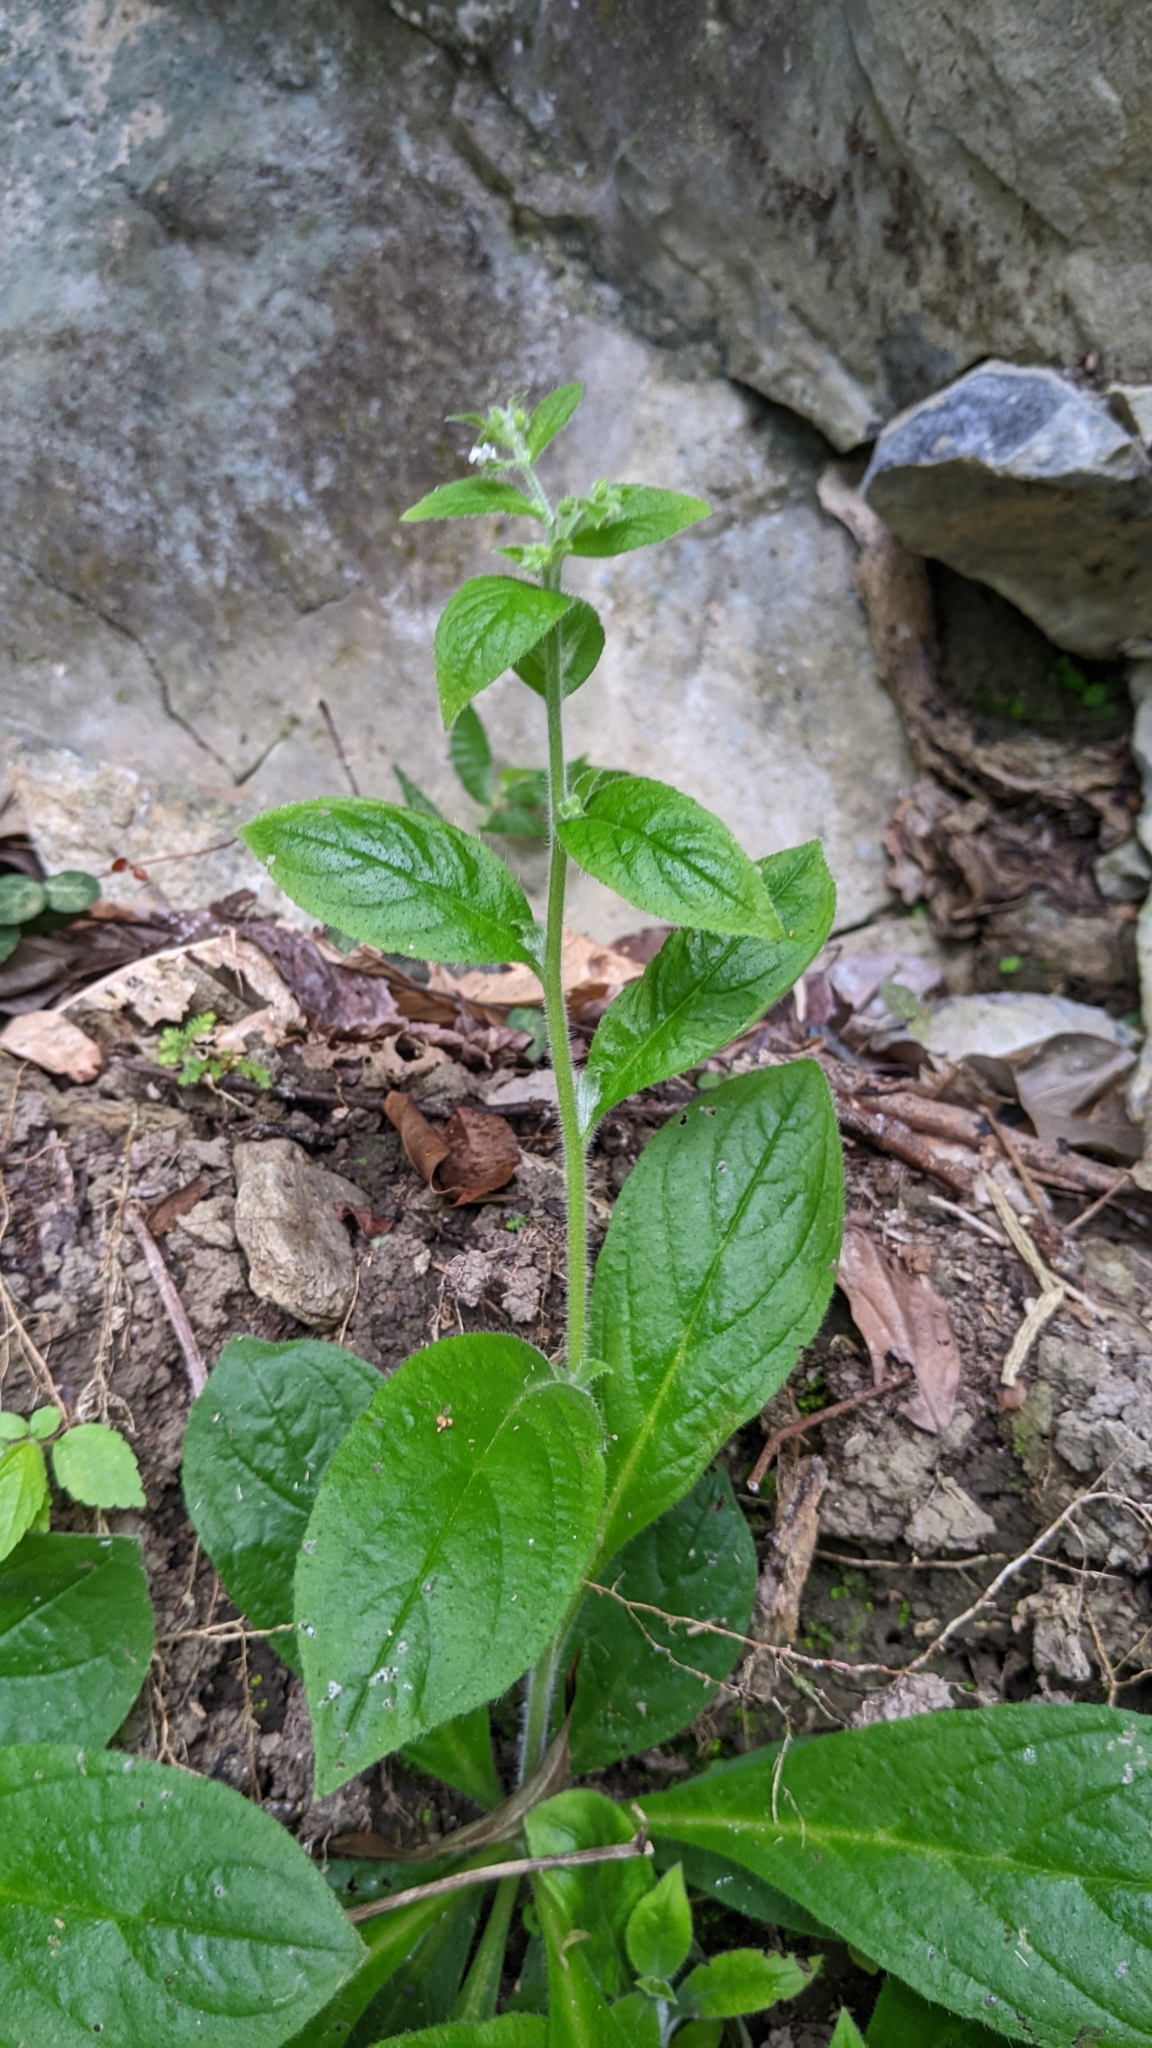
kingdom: Plantae
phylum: Tracheophyta
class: Magnoliopsida
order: Boraginales
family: Boraginaceae
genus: Thyrocarpus
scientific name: Thyrocarpus sampsonii
